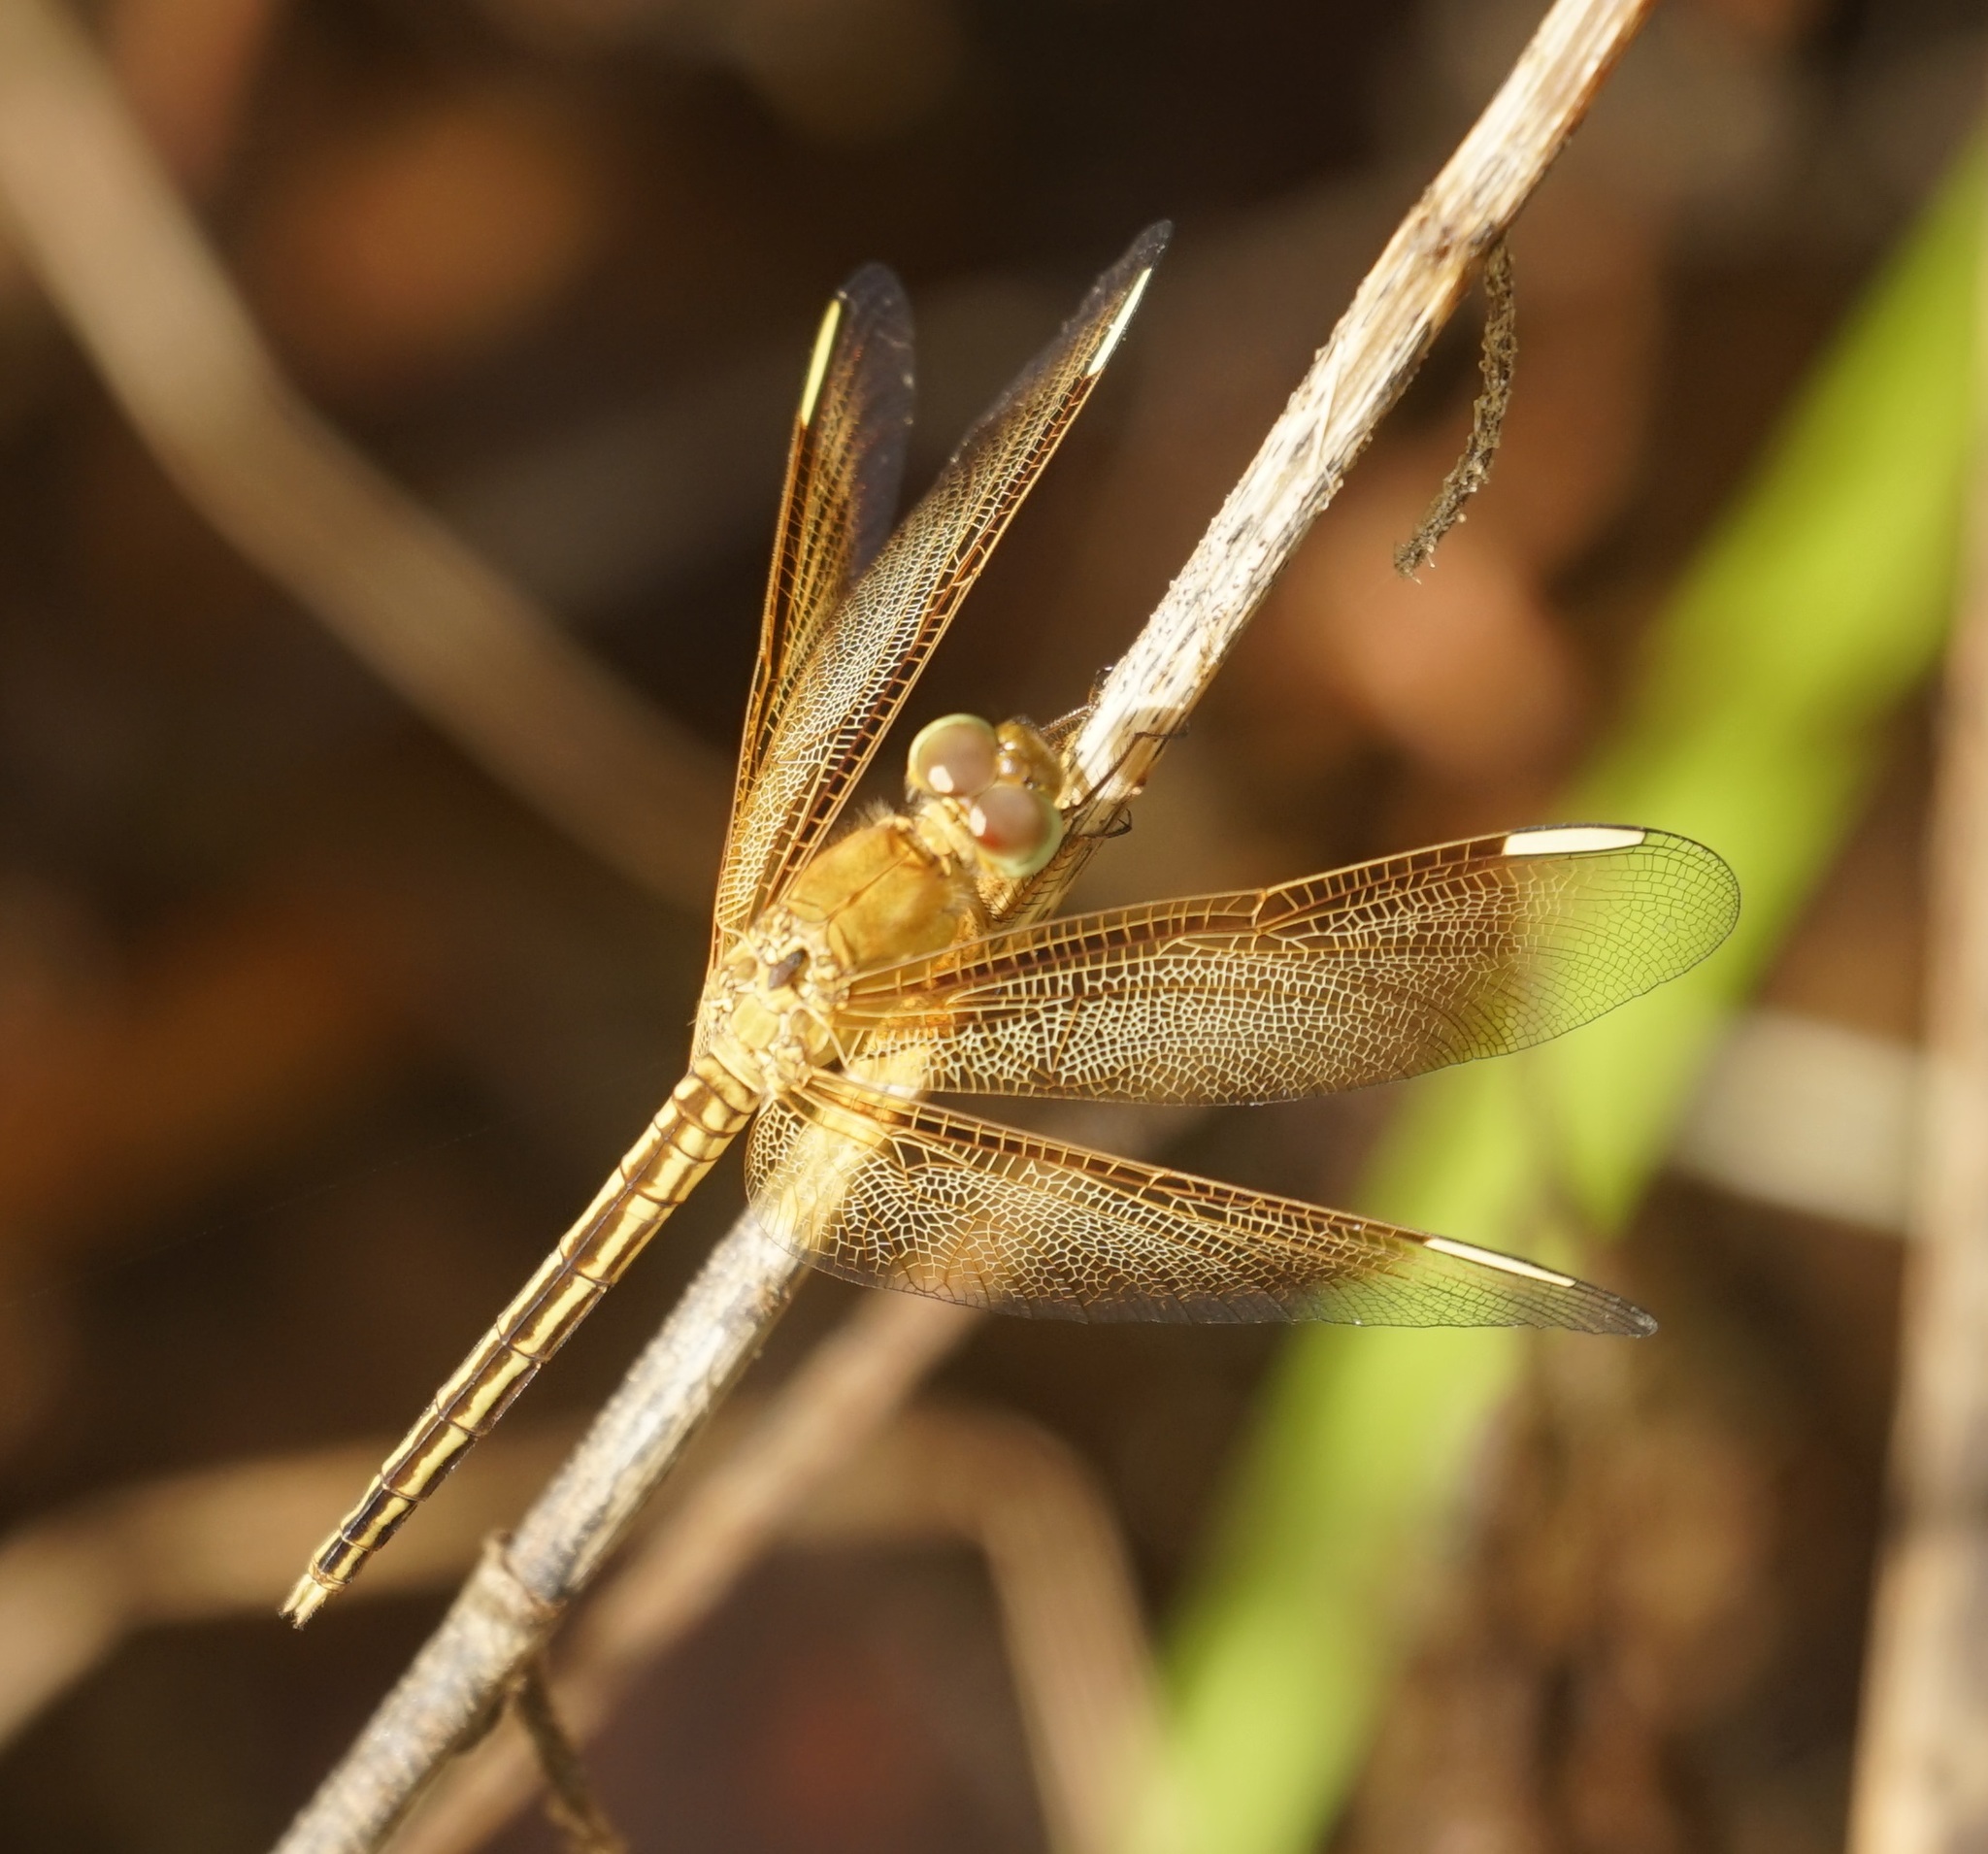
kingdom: Animalia
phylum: Arthropoda
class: Insecta
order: Odonata
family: Libellulidae
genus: Neurothemis
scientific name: Neurothemis stigmatizans
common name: Painted grasshawk
